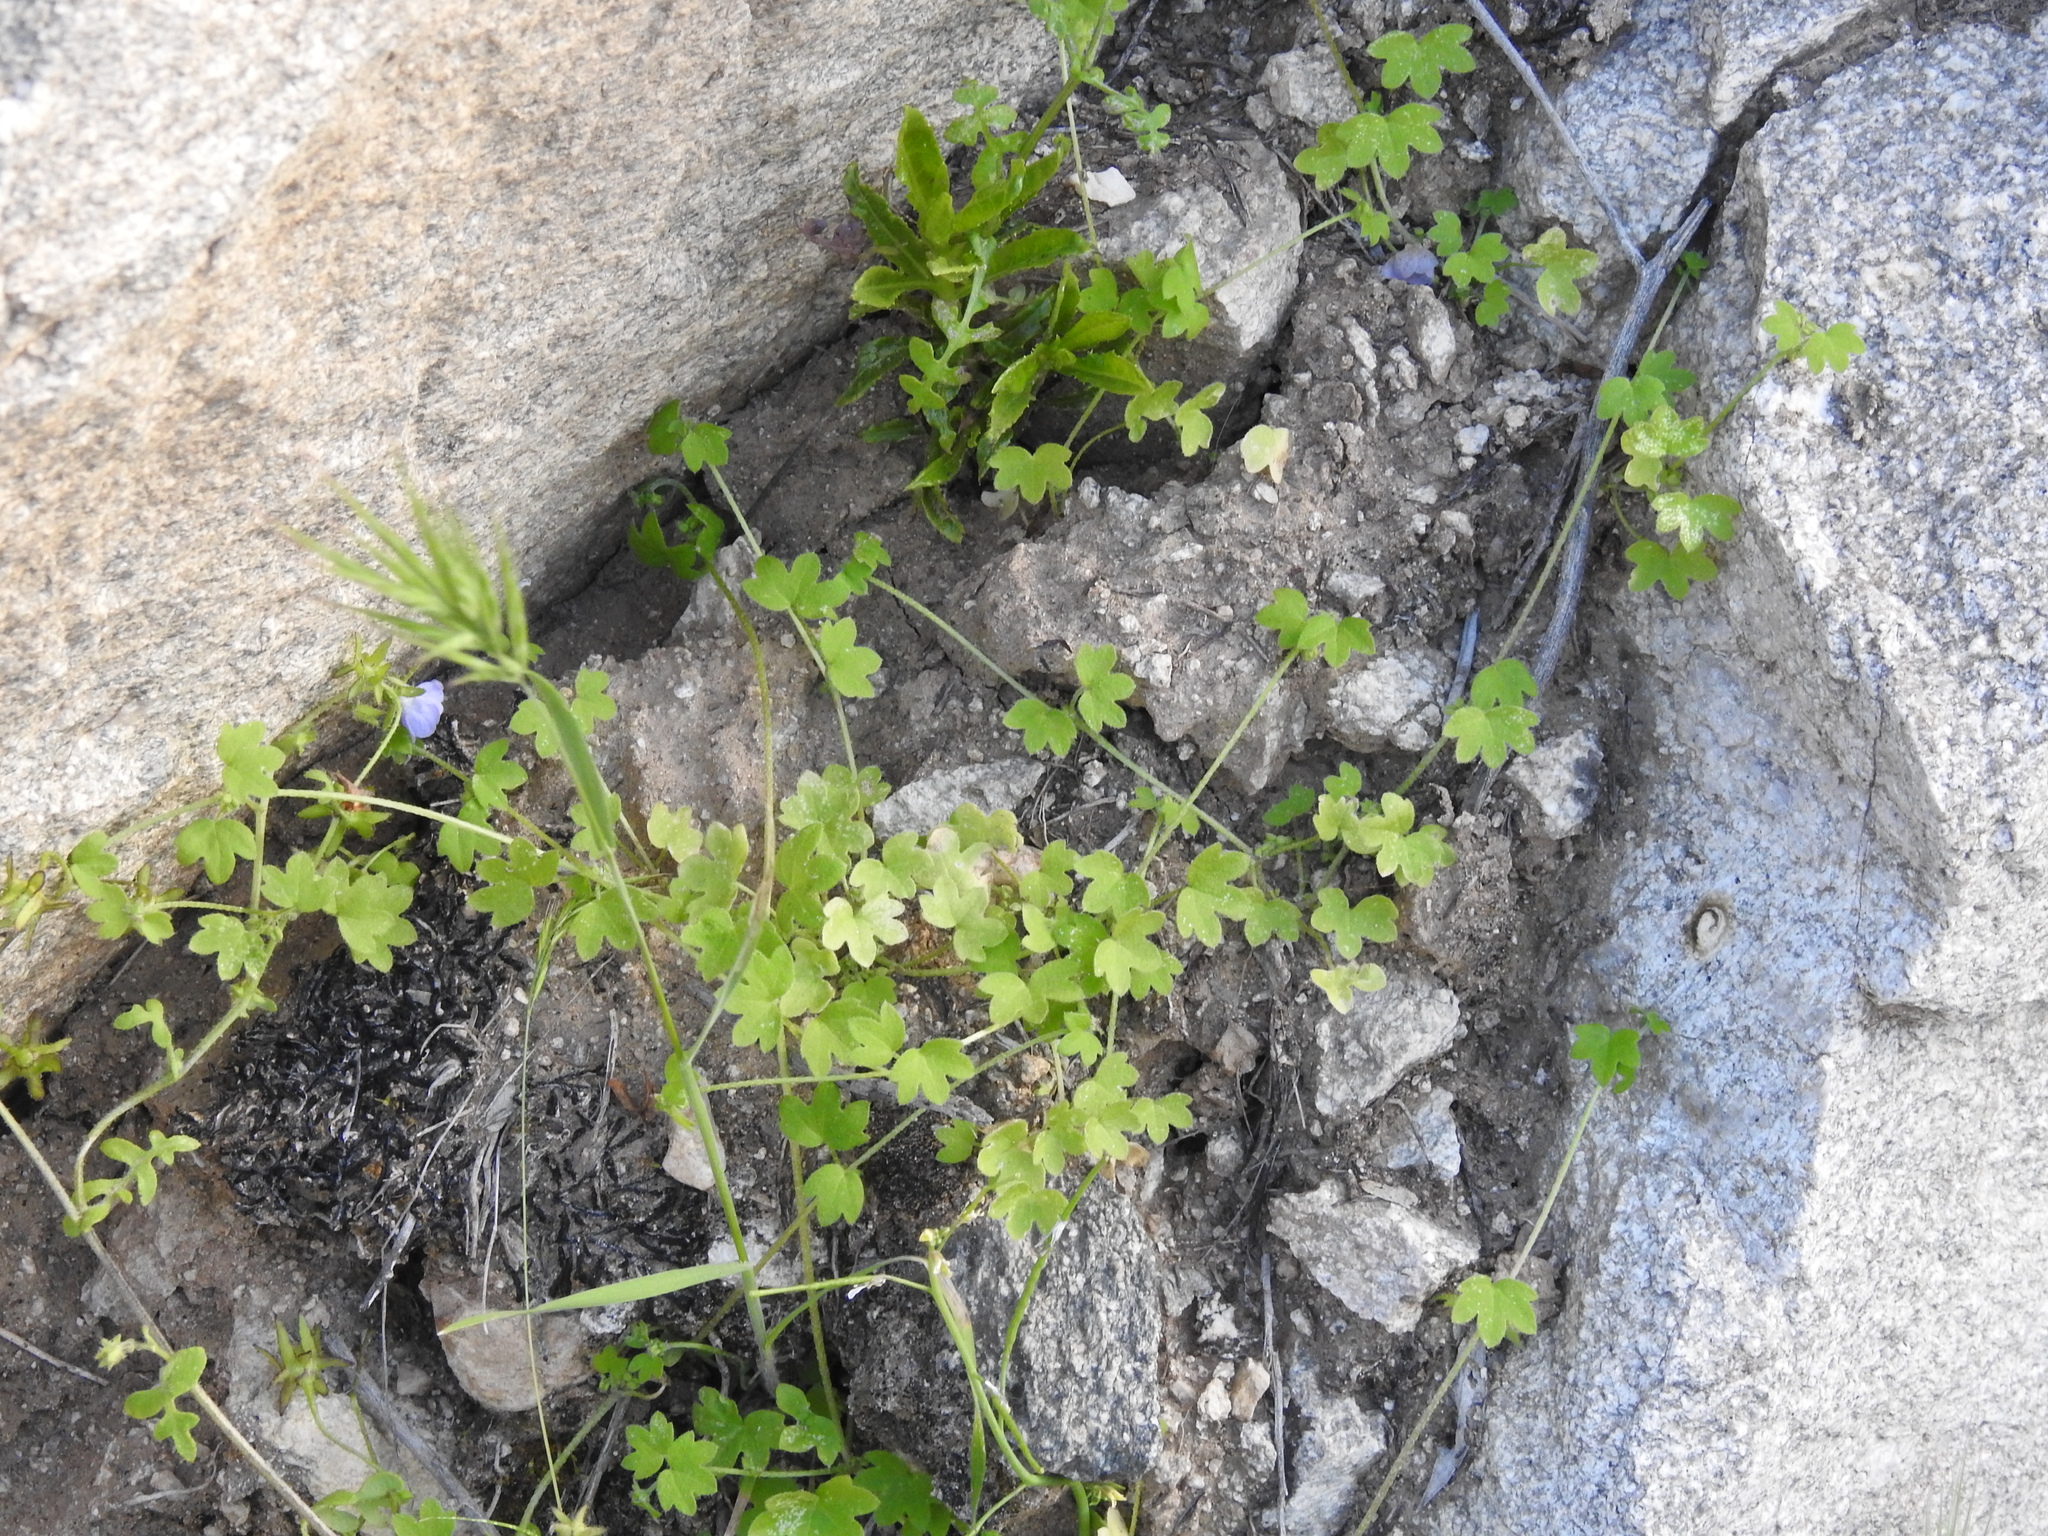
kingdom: Plantae
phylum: Tracheophyta
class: Magnoliopsida
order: Apiales
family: Apiaceae
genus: Bowlesia
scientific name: Bowlesia incana
